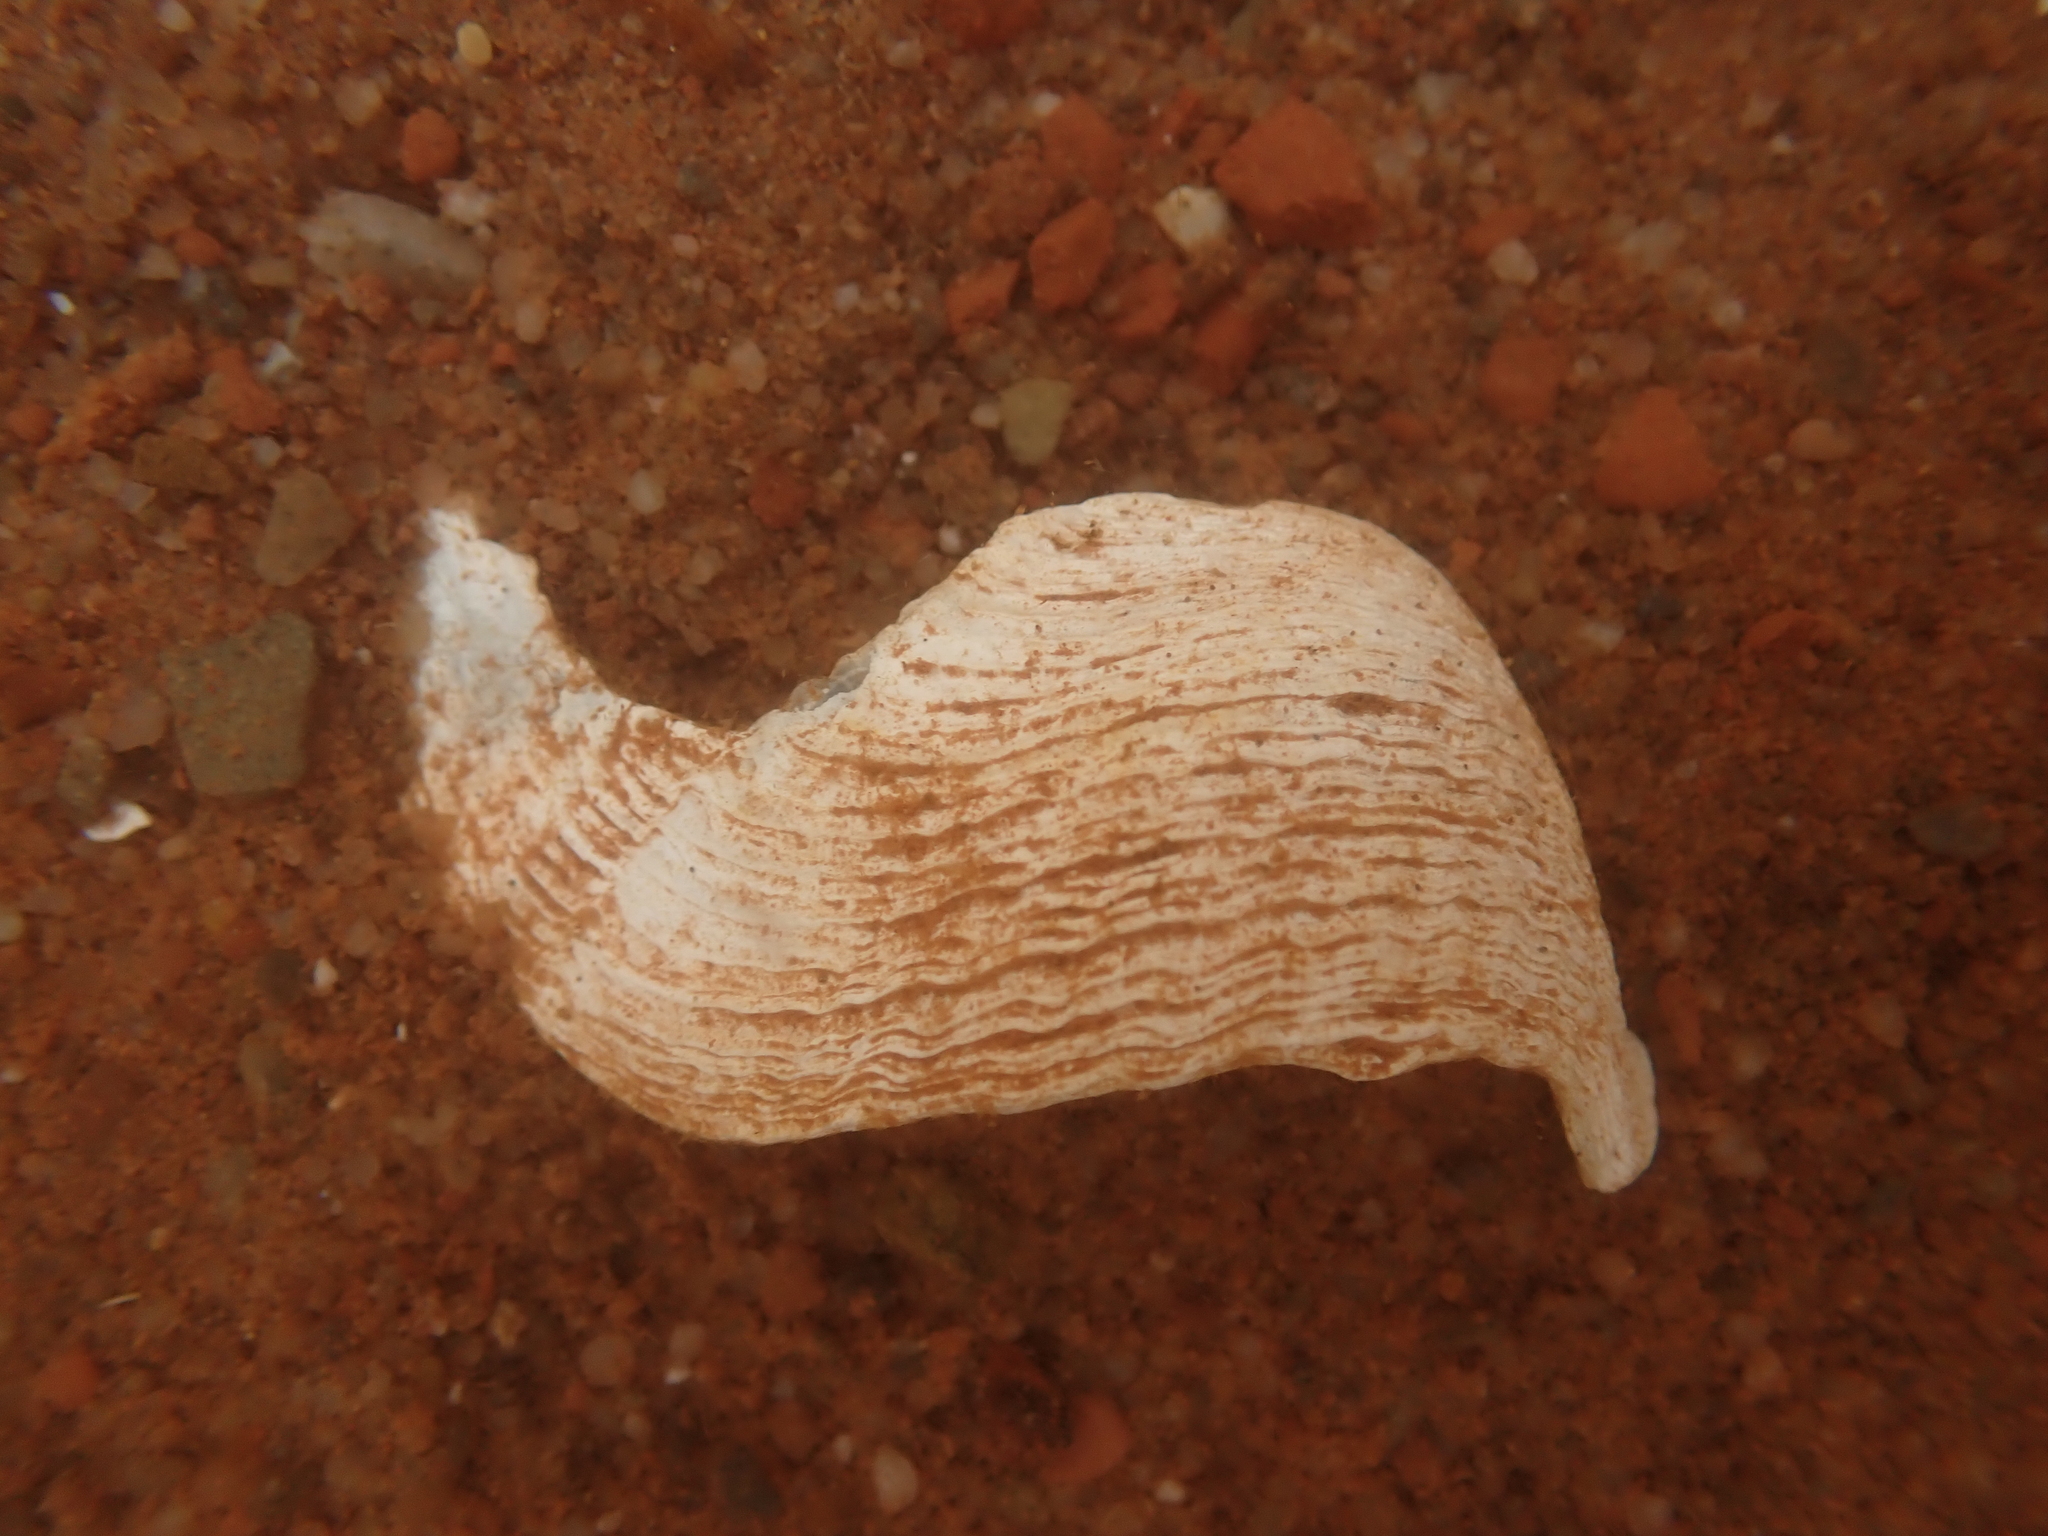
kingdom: Animalia
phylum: Mollusca
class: Bivalvia
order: Myida
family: Pholadidae
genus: Zirfaea
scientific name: Zirfaea crispata
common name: Oval piddock
